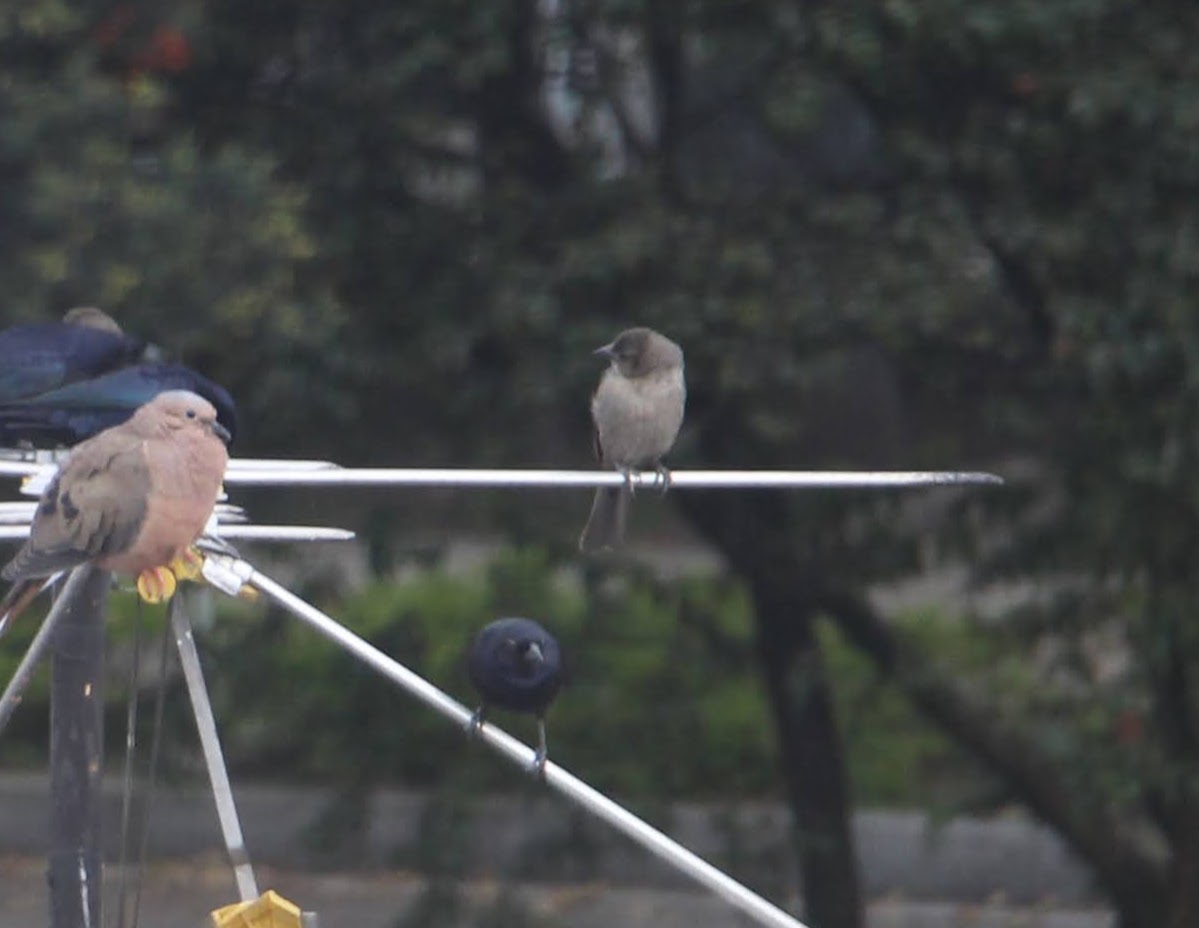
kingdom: Animalia
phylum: Chordata
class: Aves
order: Passeriformes
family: Icteridae
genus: Molothrus
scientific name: Molothrus bonariensis
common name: Shiny cowbird
